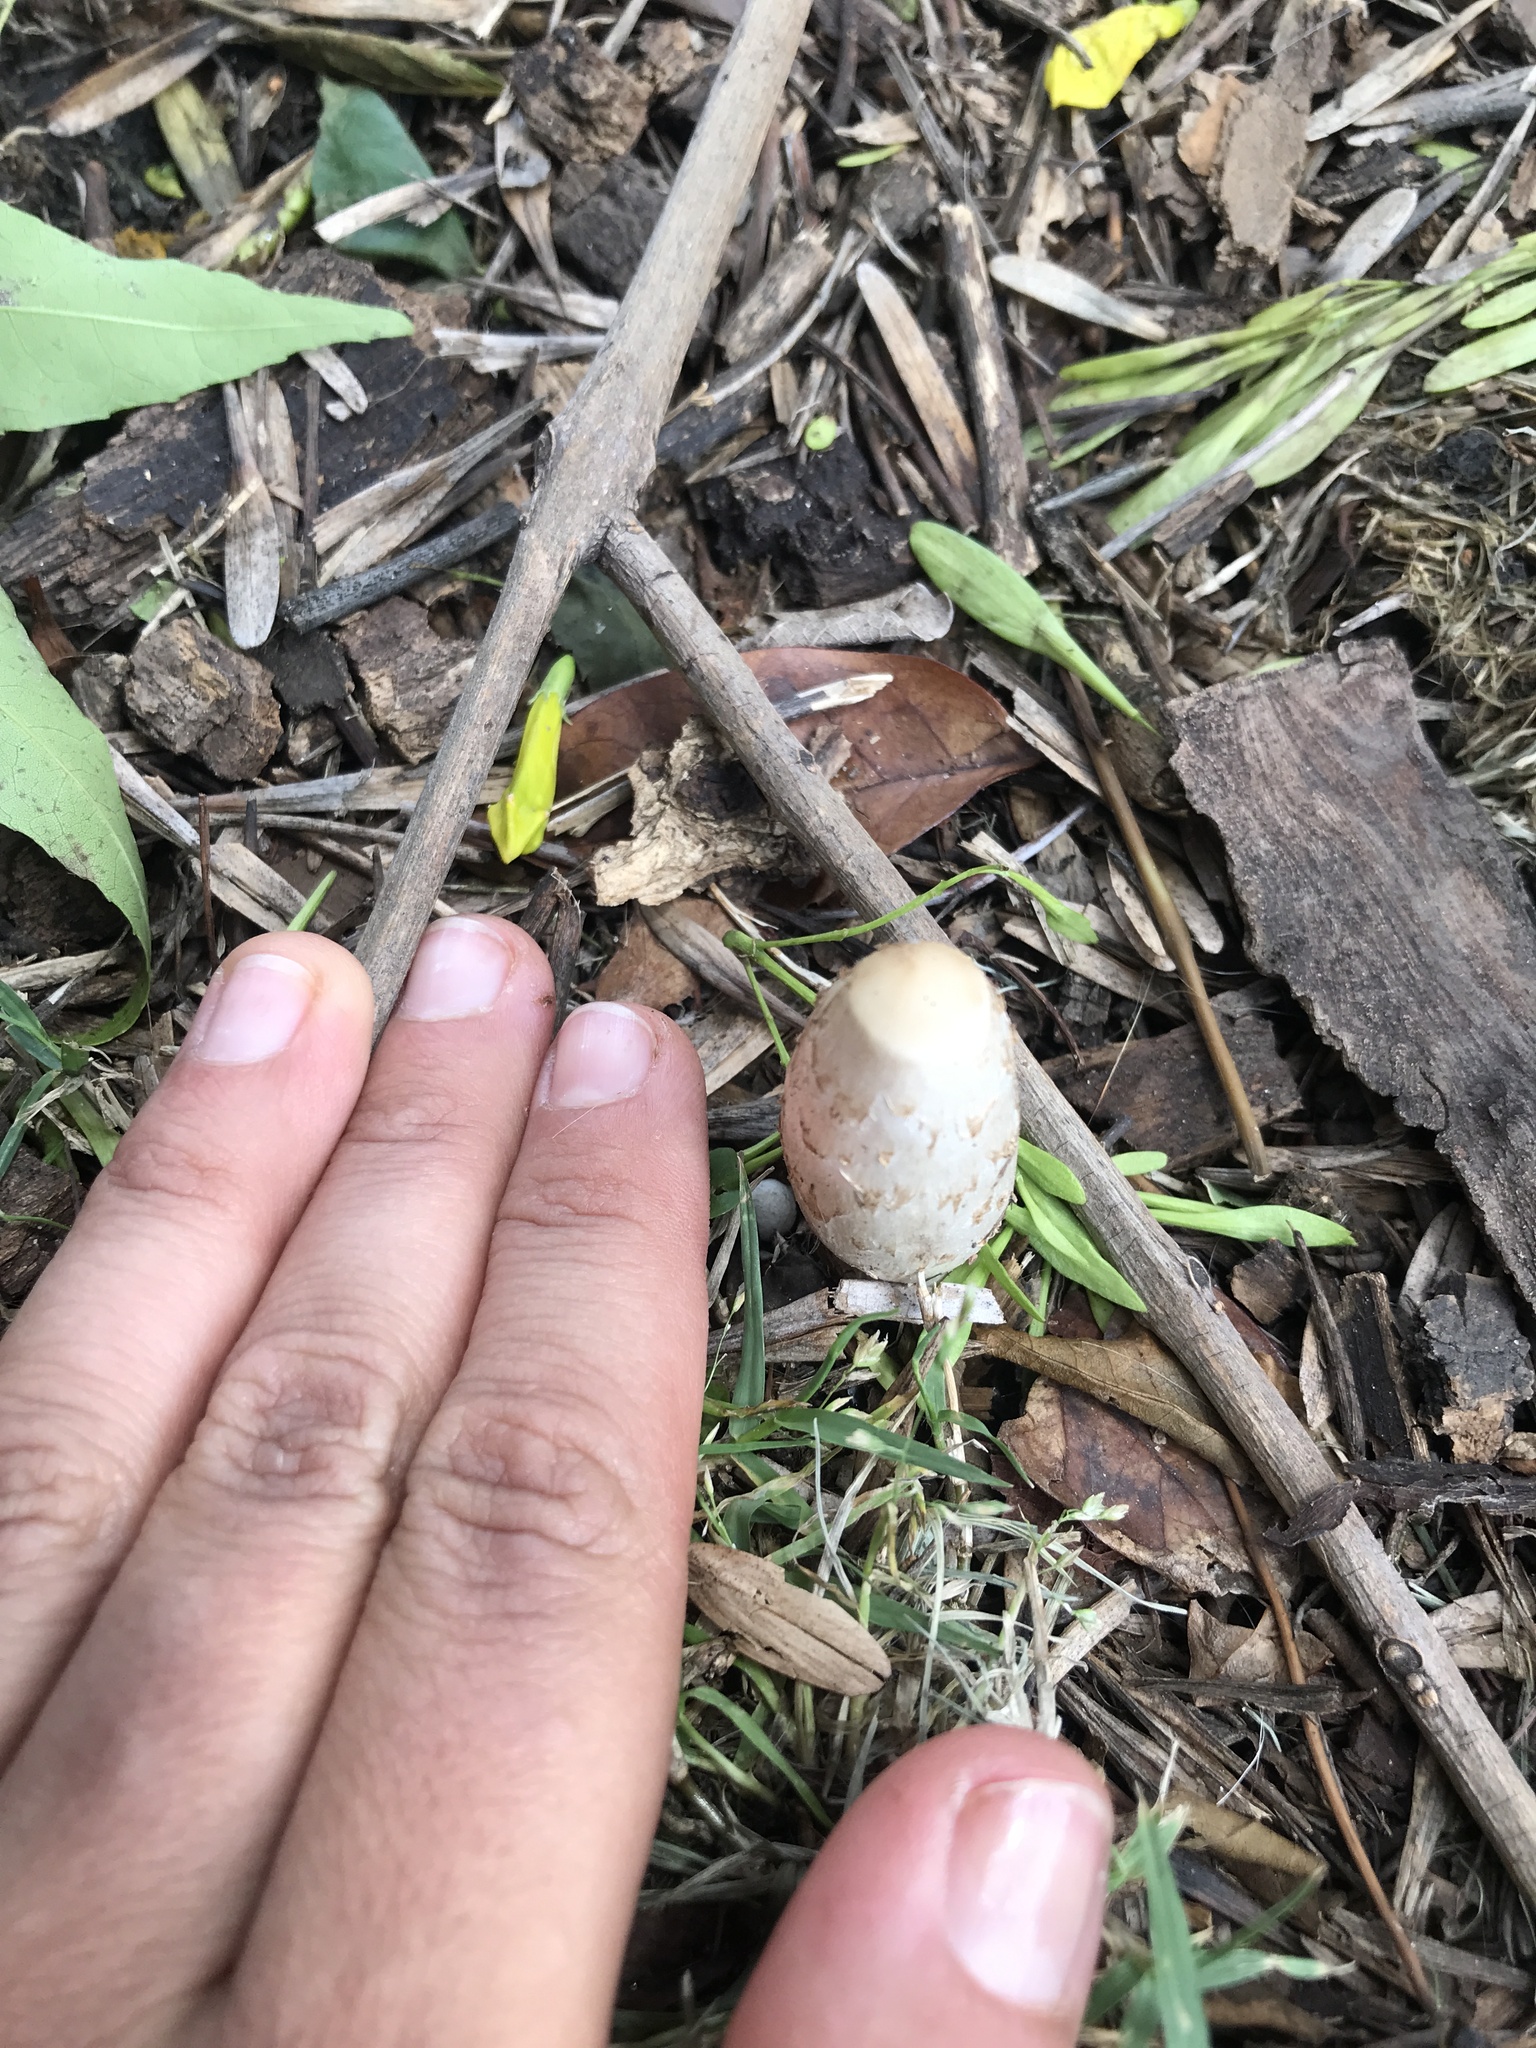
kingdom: Fungi
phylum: Basidiomycota
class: Agaricomycetes
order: Agaricales
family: Agaricaceae
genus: Coprinus
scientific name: Coprinus comatus
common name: Lawyer's wig
